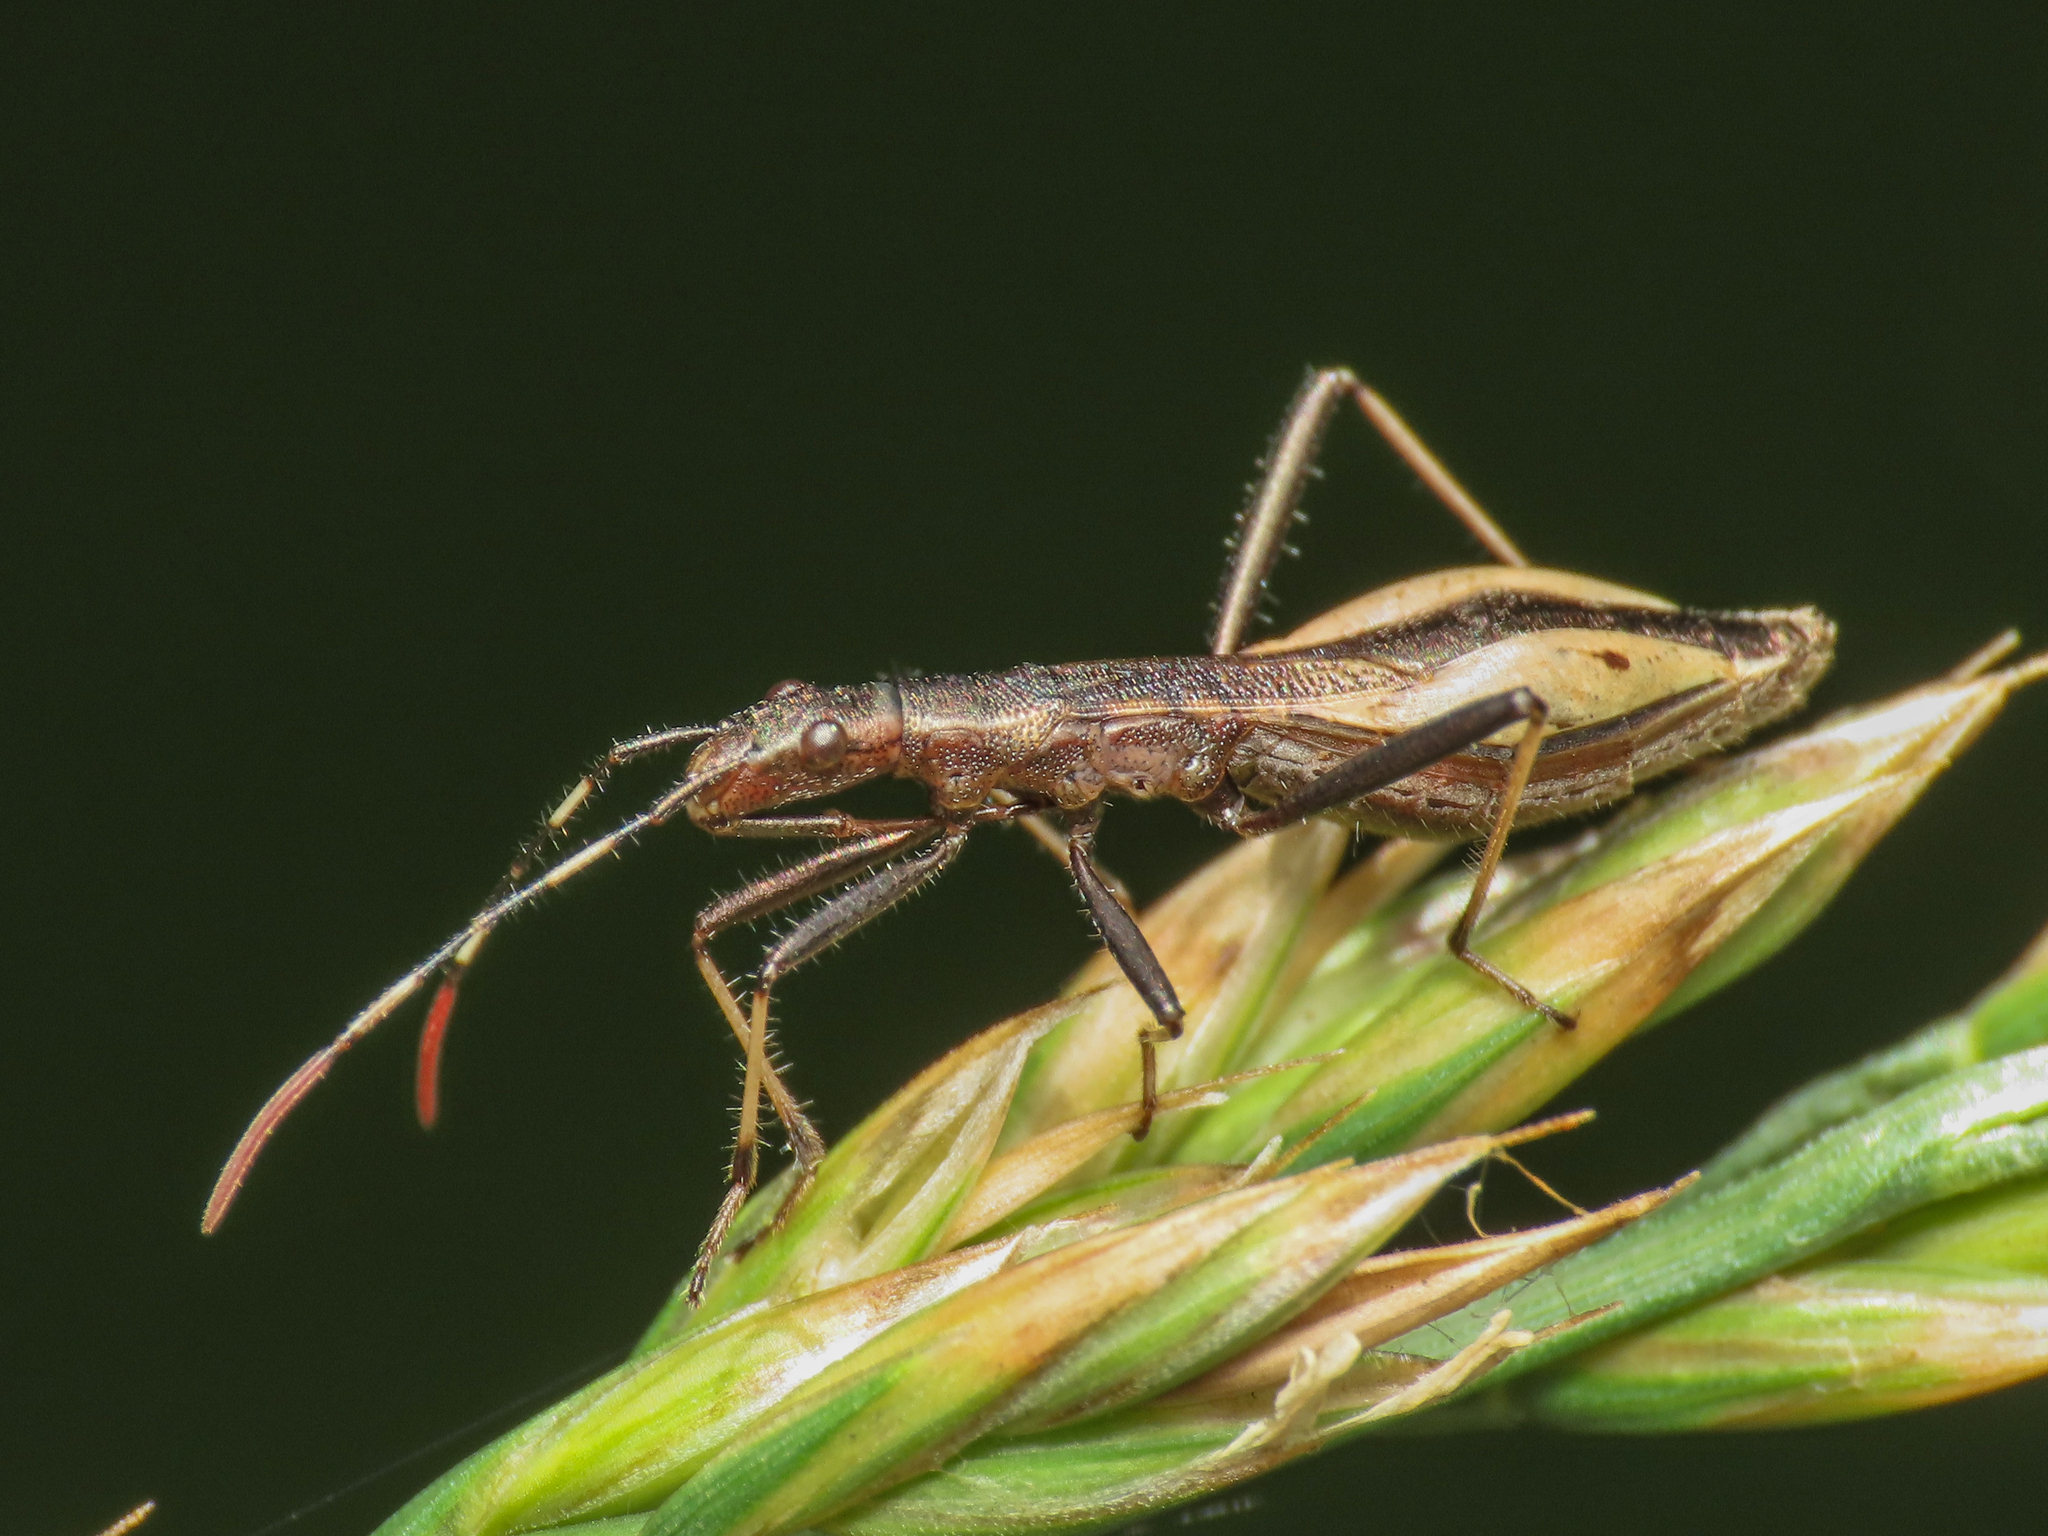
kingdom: Animalia
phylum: Arthropoda
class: Insecta
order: Hemiptera
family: Alydidae
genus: Micrelytra
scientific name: Micrelytra fossularum
